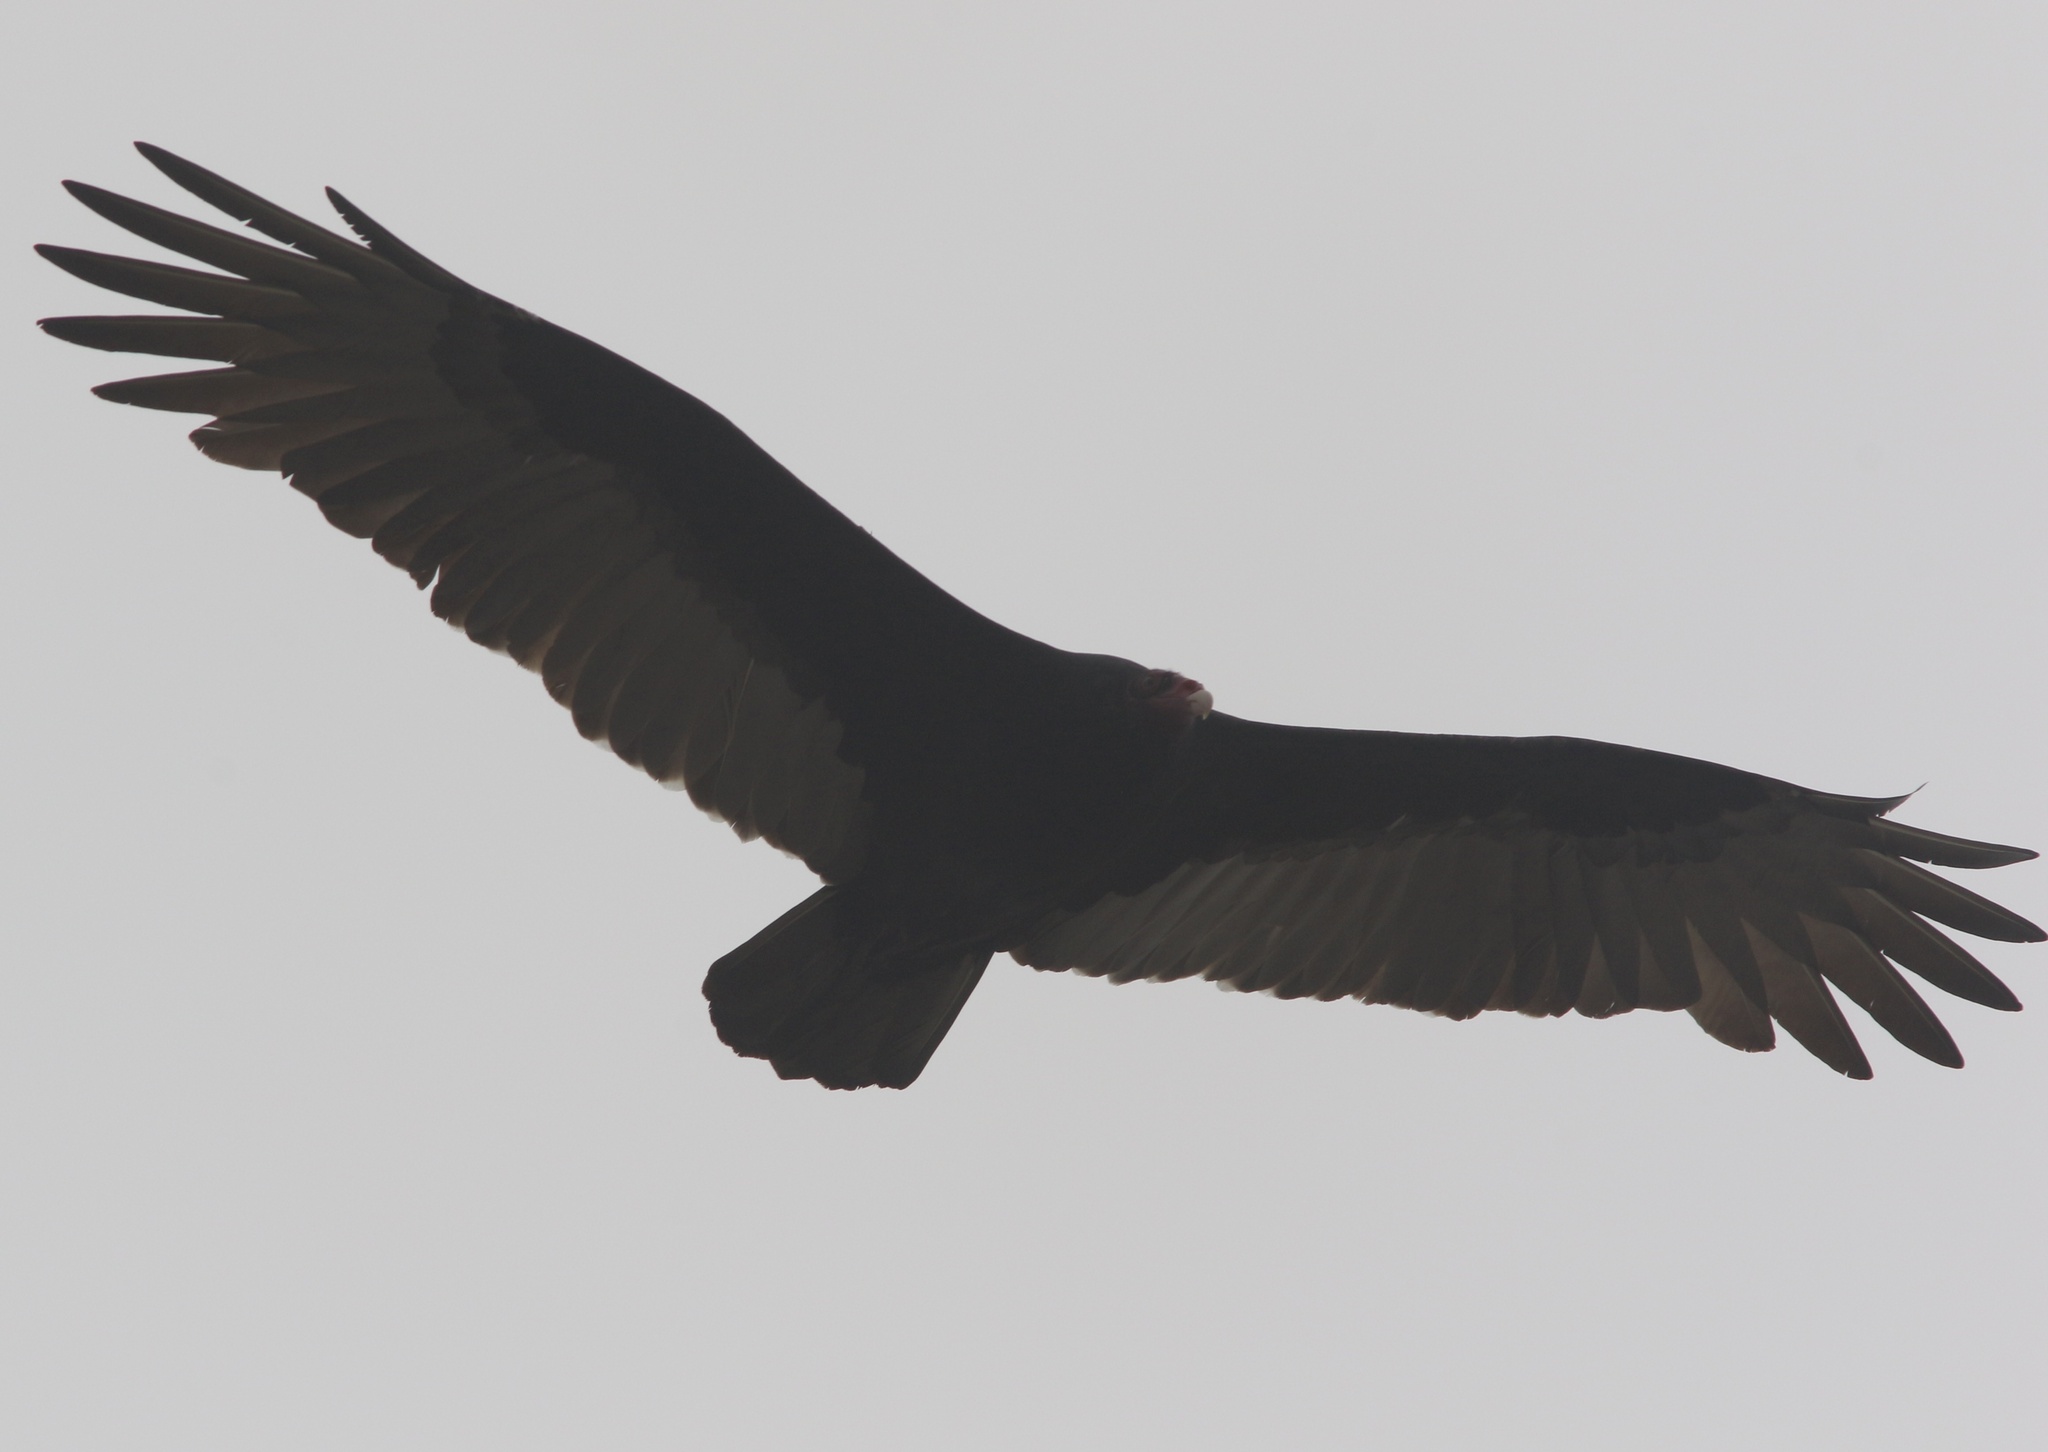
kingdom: Animalia
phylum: Chordata
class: Aves
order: Accipitriformes
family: Cathartidae
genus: Cathartes
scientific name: Cathartes aura
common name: Turkey vulture
